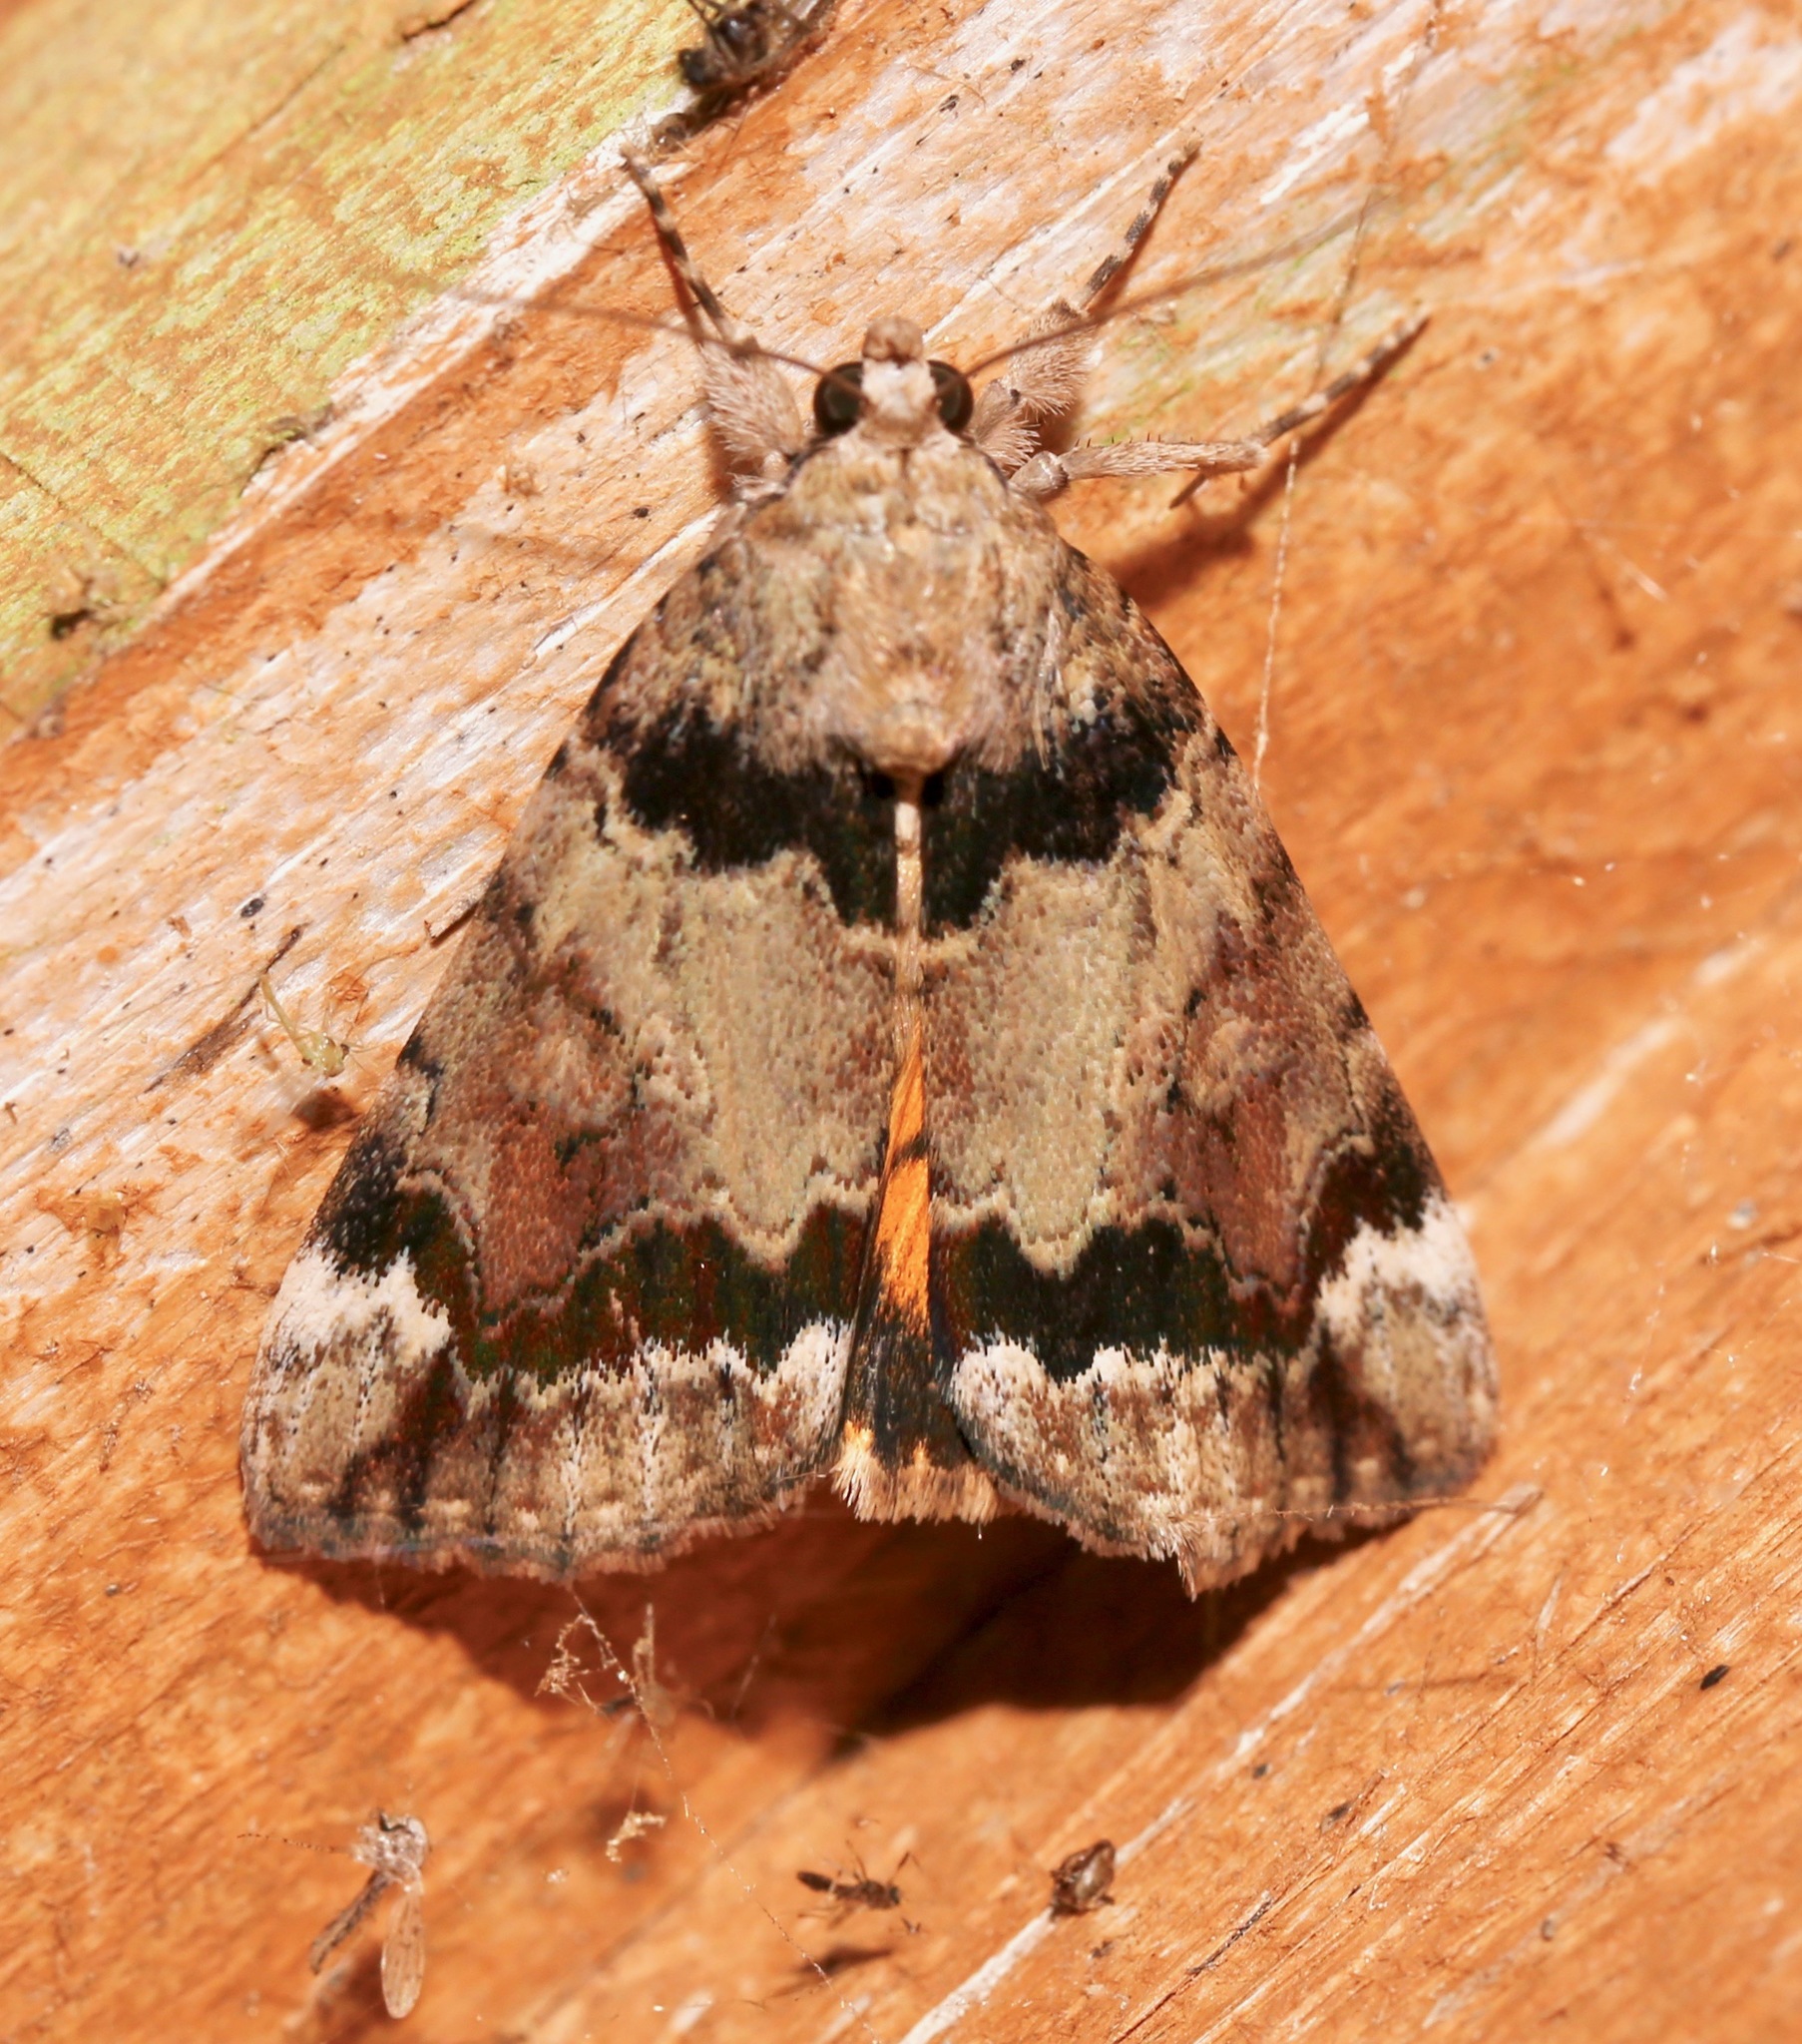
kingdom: Animalia
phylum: Arthropoda
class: Insecta
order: Lepidoptera
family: Erebidae
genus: Catocala
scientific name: Catocala micronympha
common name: Little nymph underwing
